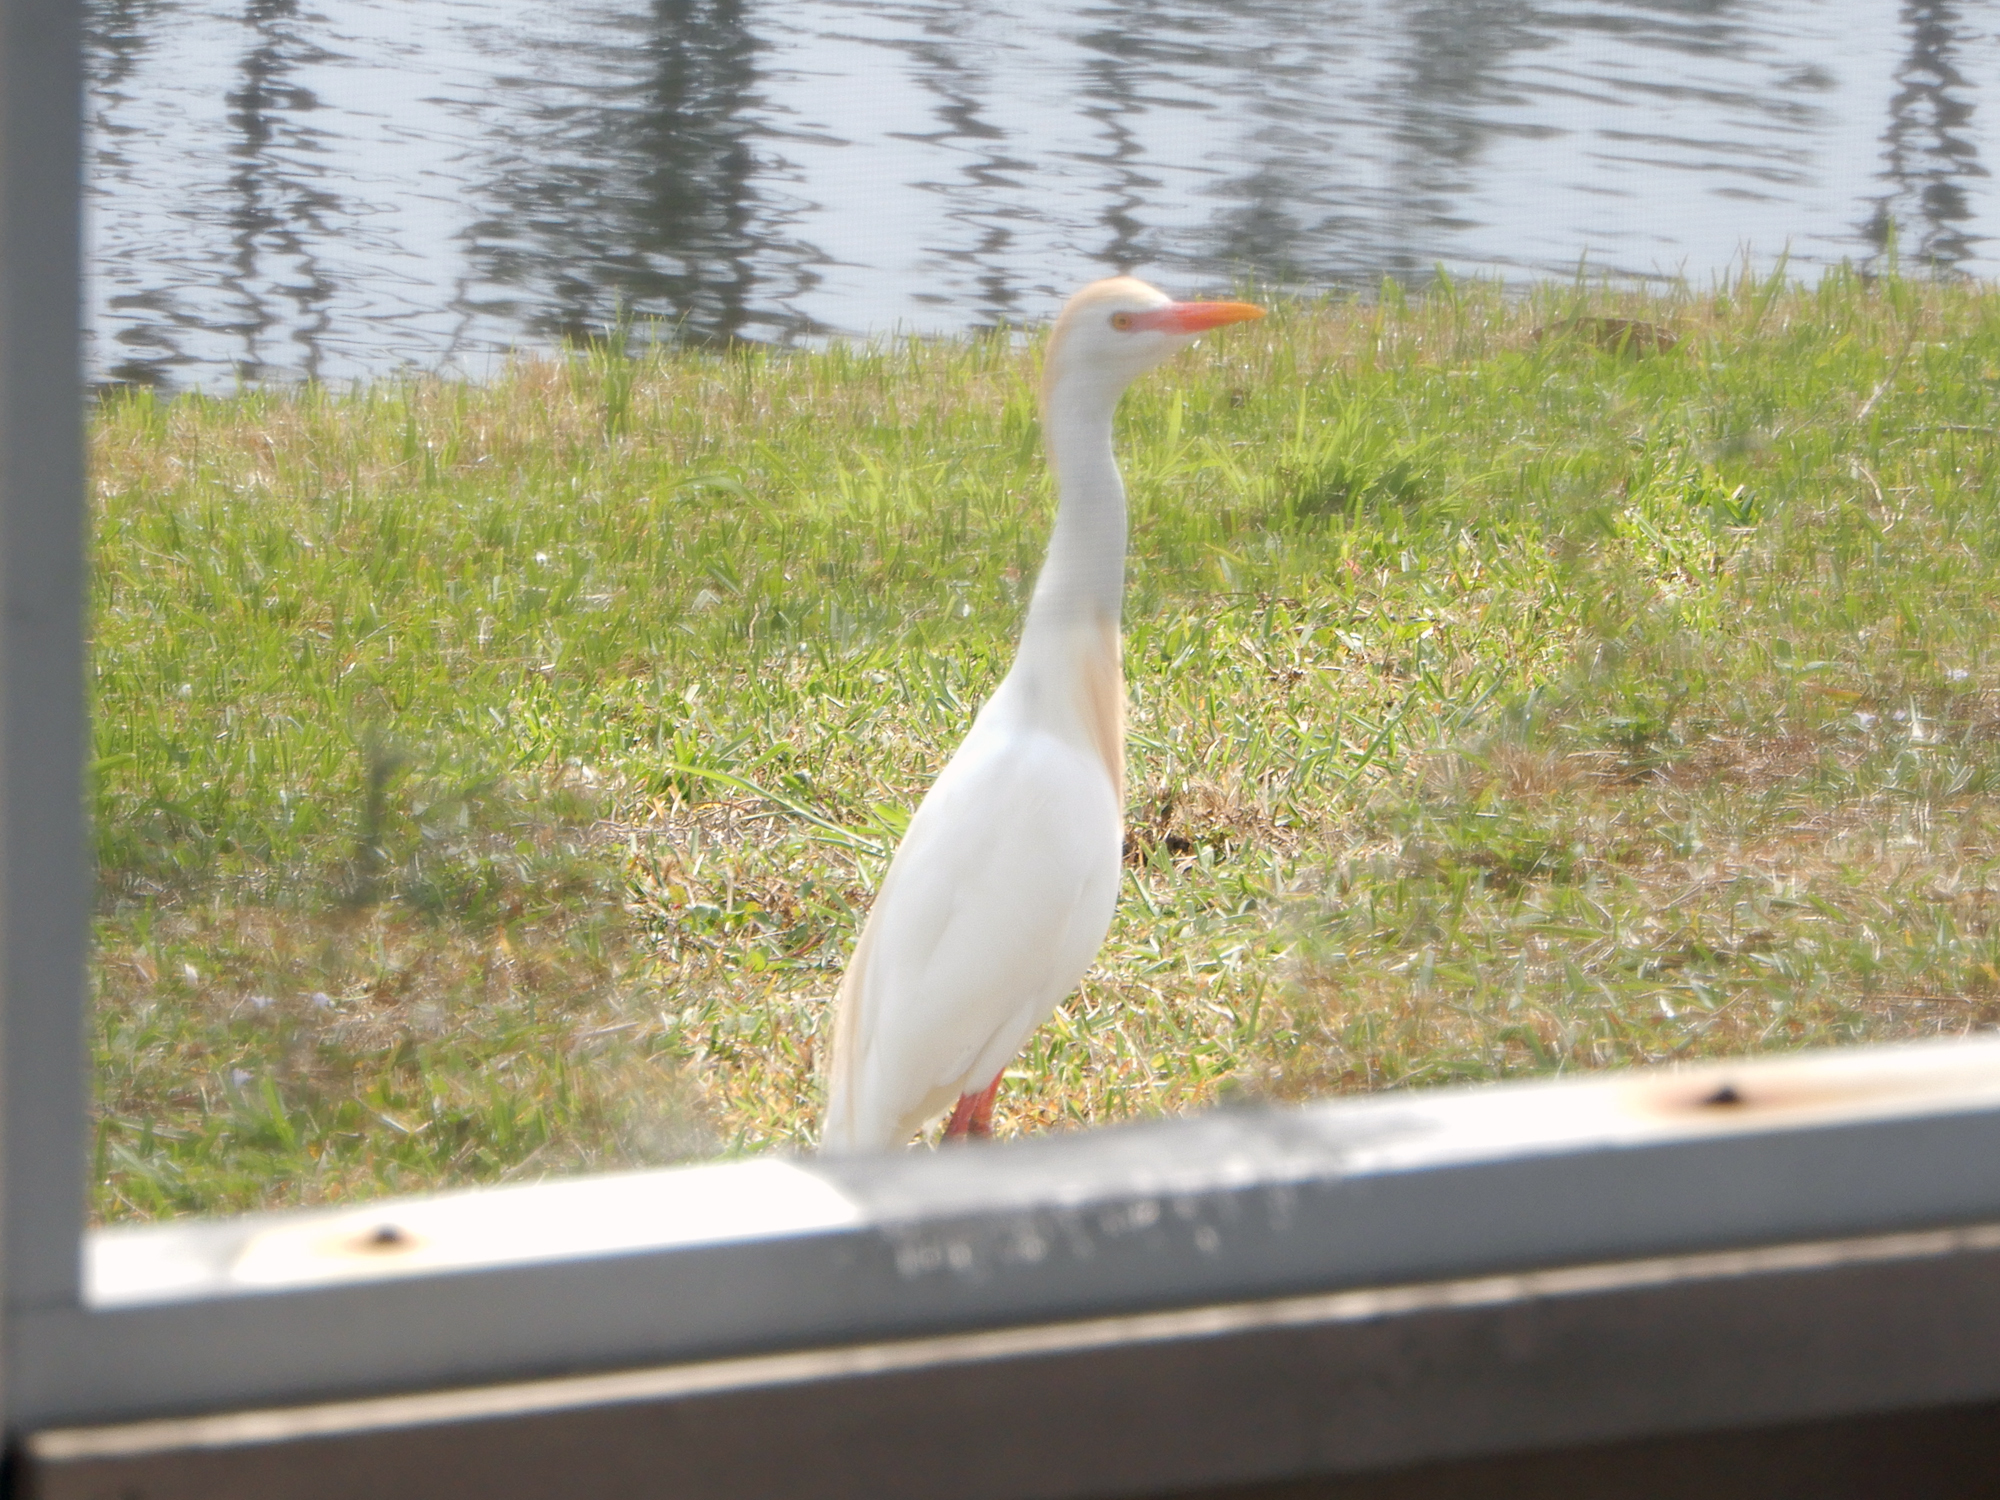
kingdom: Animalia
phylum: Chordata
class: Aves
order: Pelecaniformes
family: Ardeidae
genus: Bubulcus
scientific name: Bubulcus ibis
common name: Cattle egret
